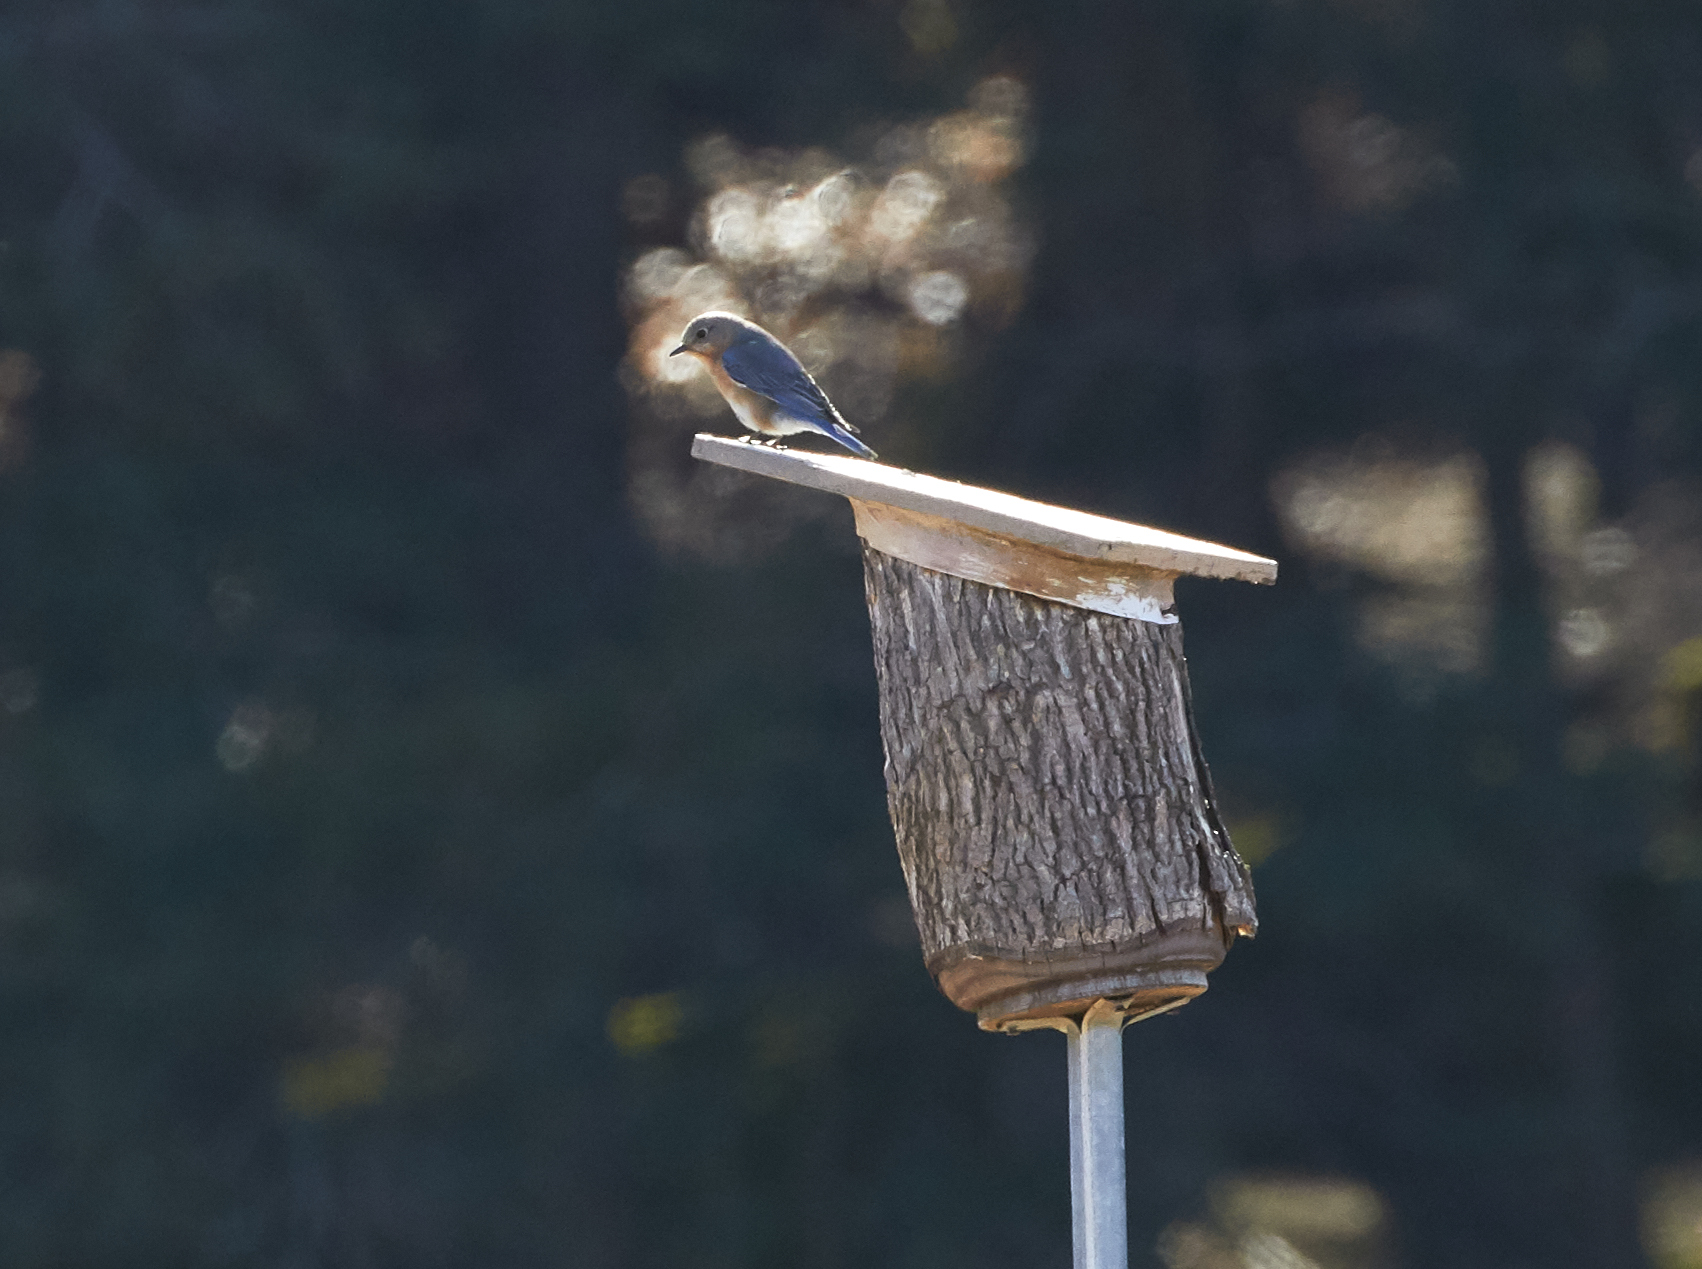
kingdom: Animalia
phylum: Chordata
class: Aves
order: Passeriformes
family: Turdidae
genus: Sialia
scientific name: Sialia sialis
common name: Eastern bluebird
